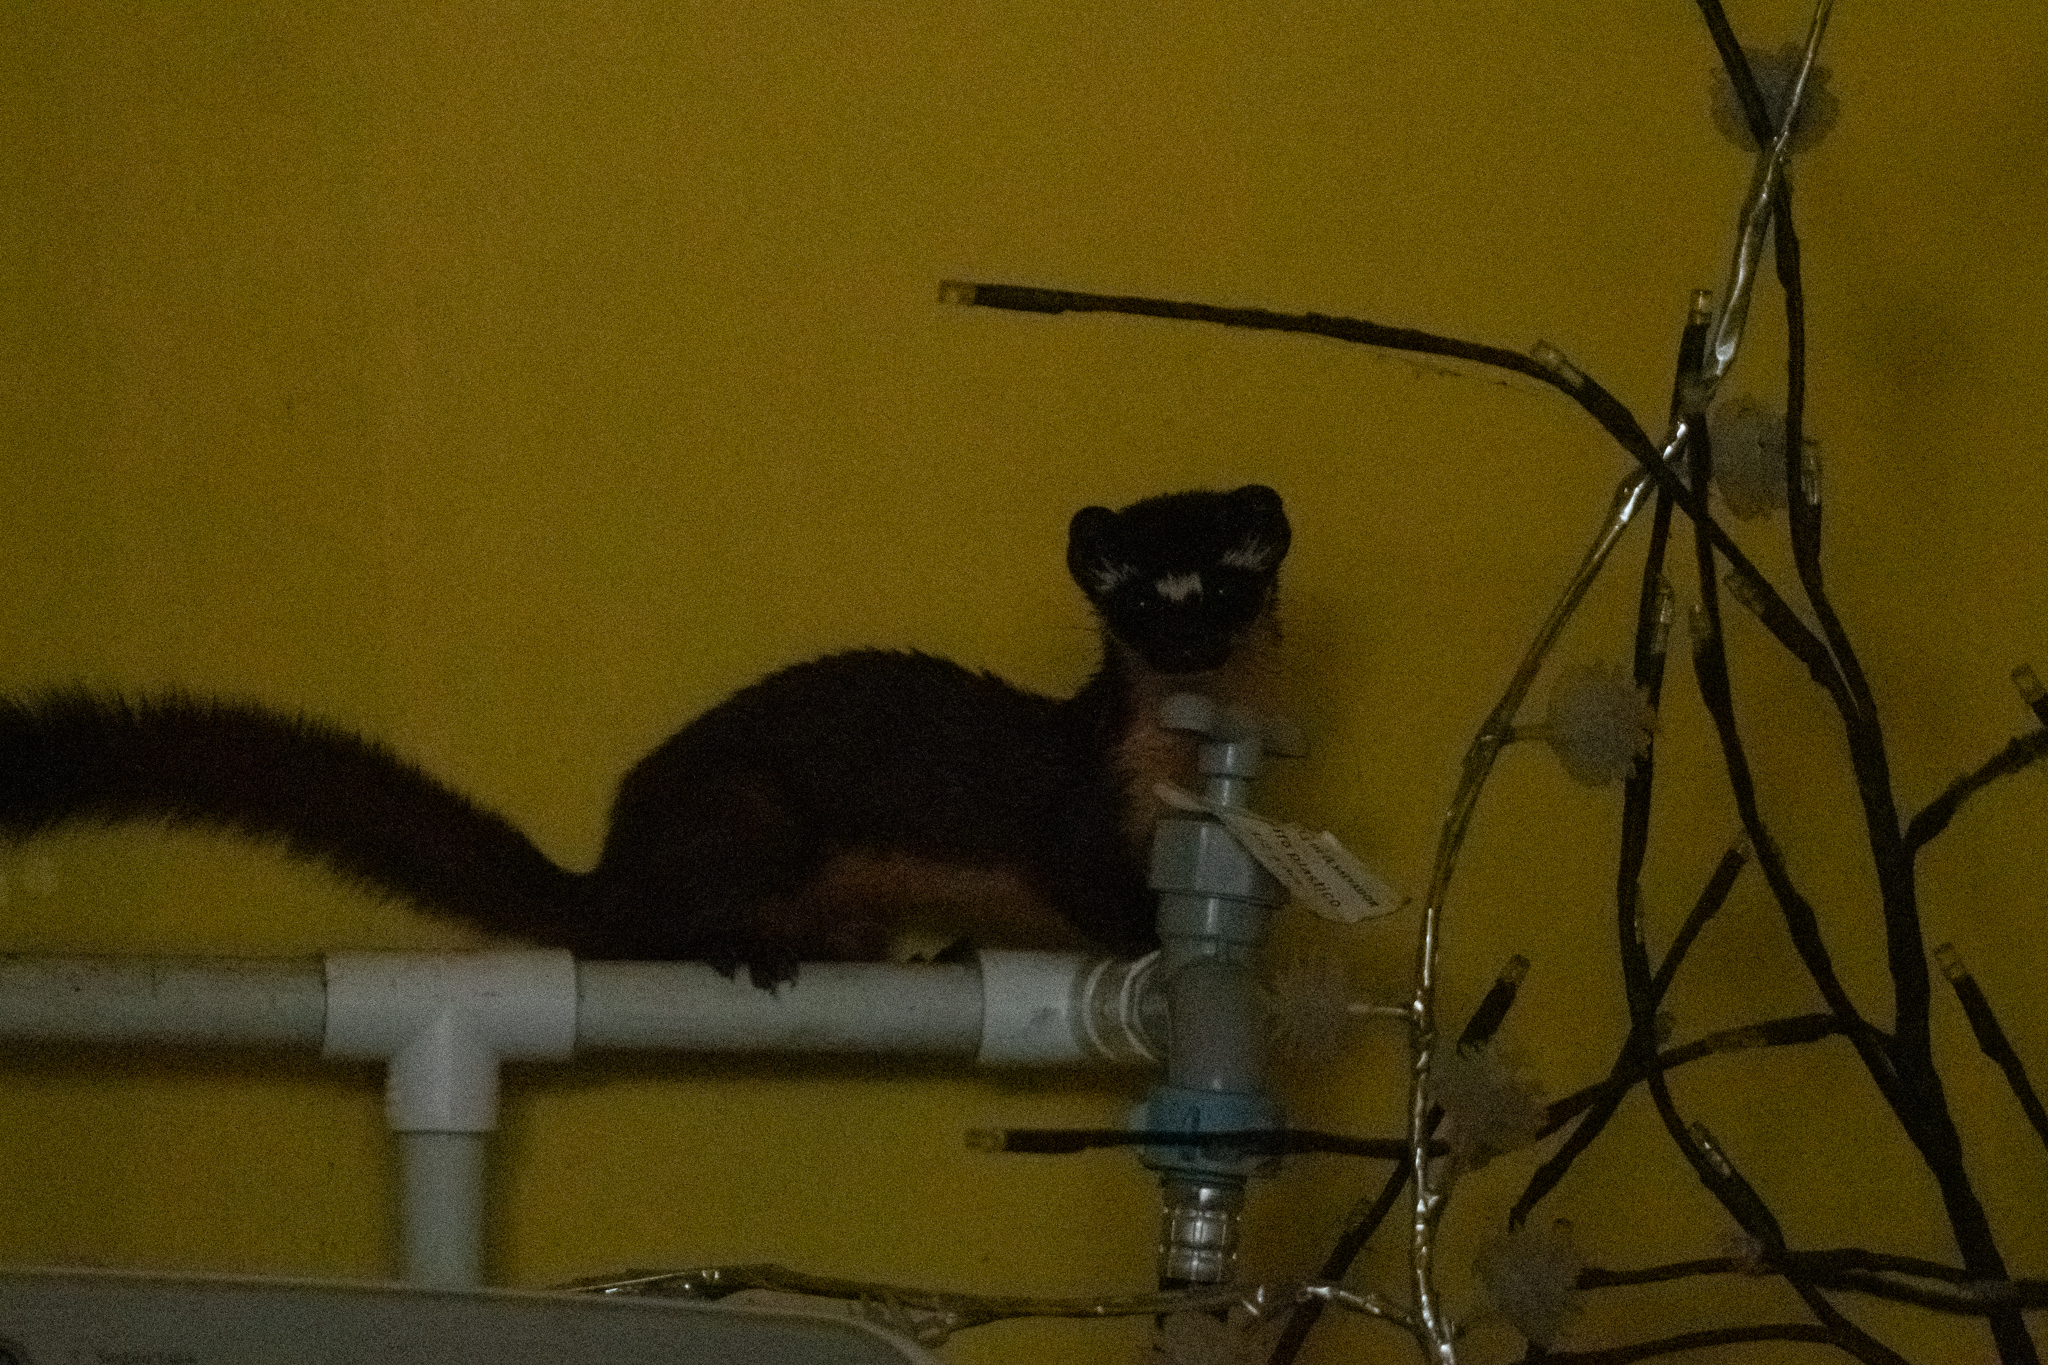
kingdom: Animalia
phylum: Chordata
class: Mammalia
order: Carnivora
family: Mustelidae
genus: Mustela
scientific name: Mustela
